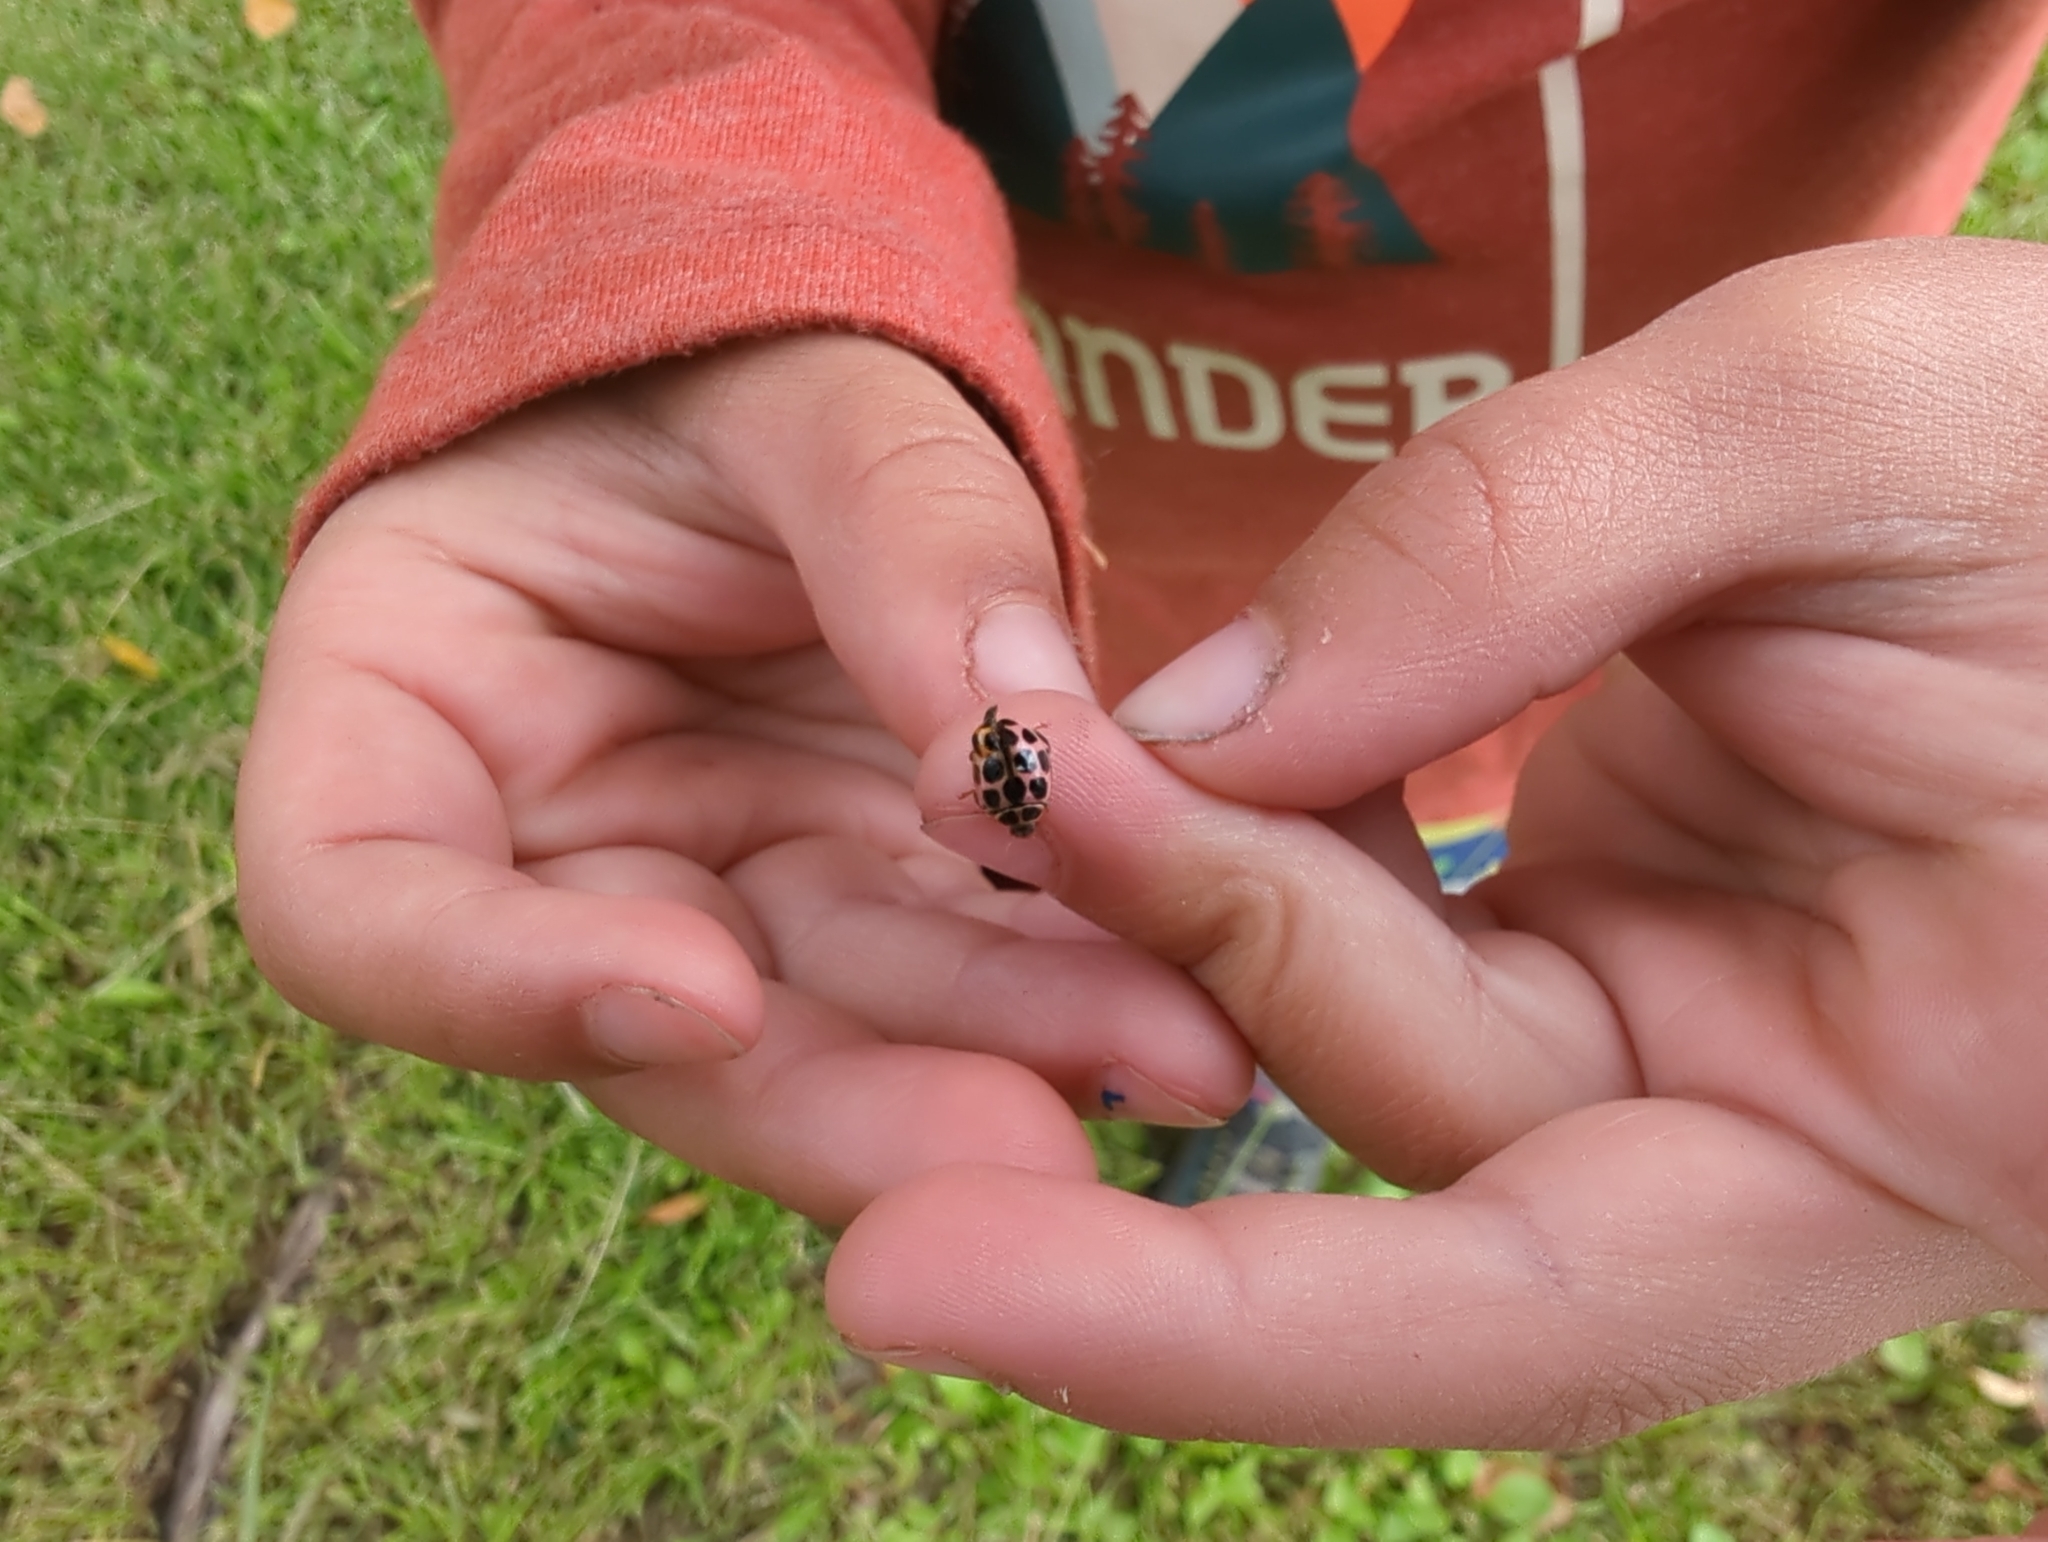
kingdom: Animalia
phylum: Arthropoda
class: Insecta
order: Coleoptera
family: Coccinellidae
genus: Calvia
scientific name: Calvia quatuordecimguttata
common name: Cream-spot ladybird
